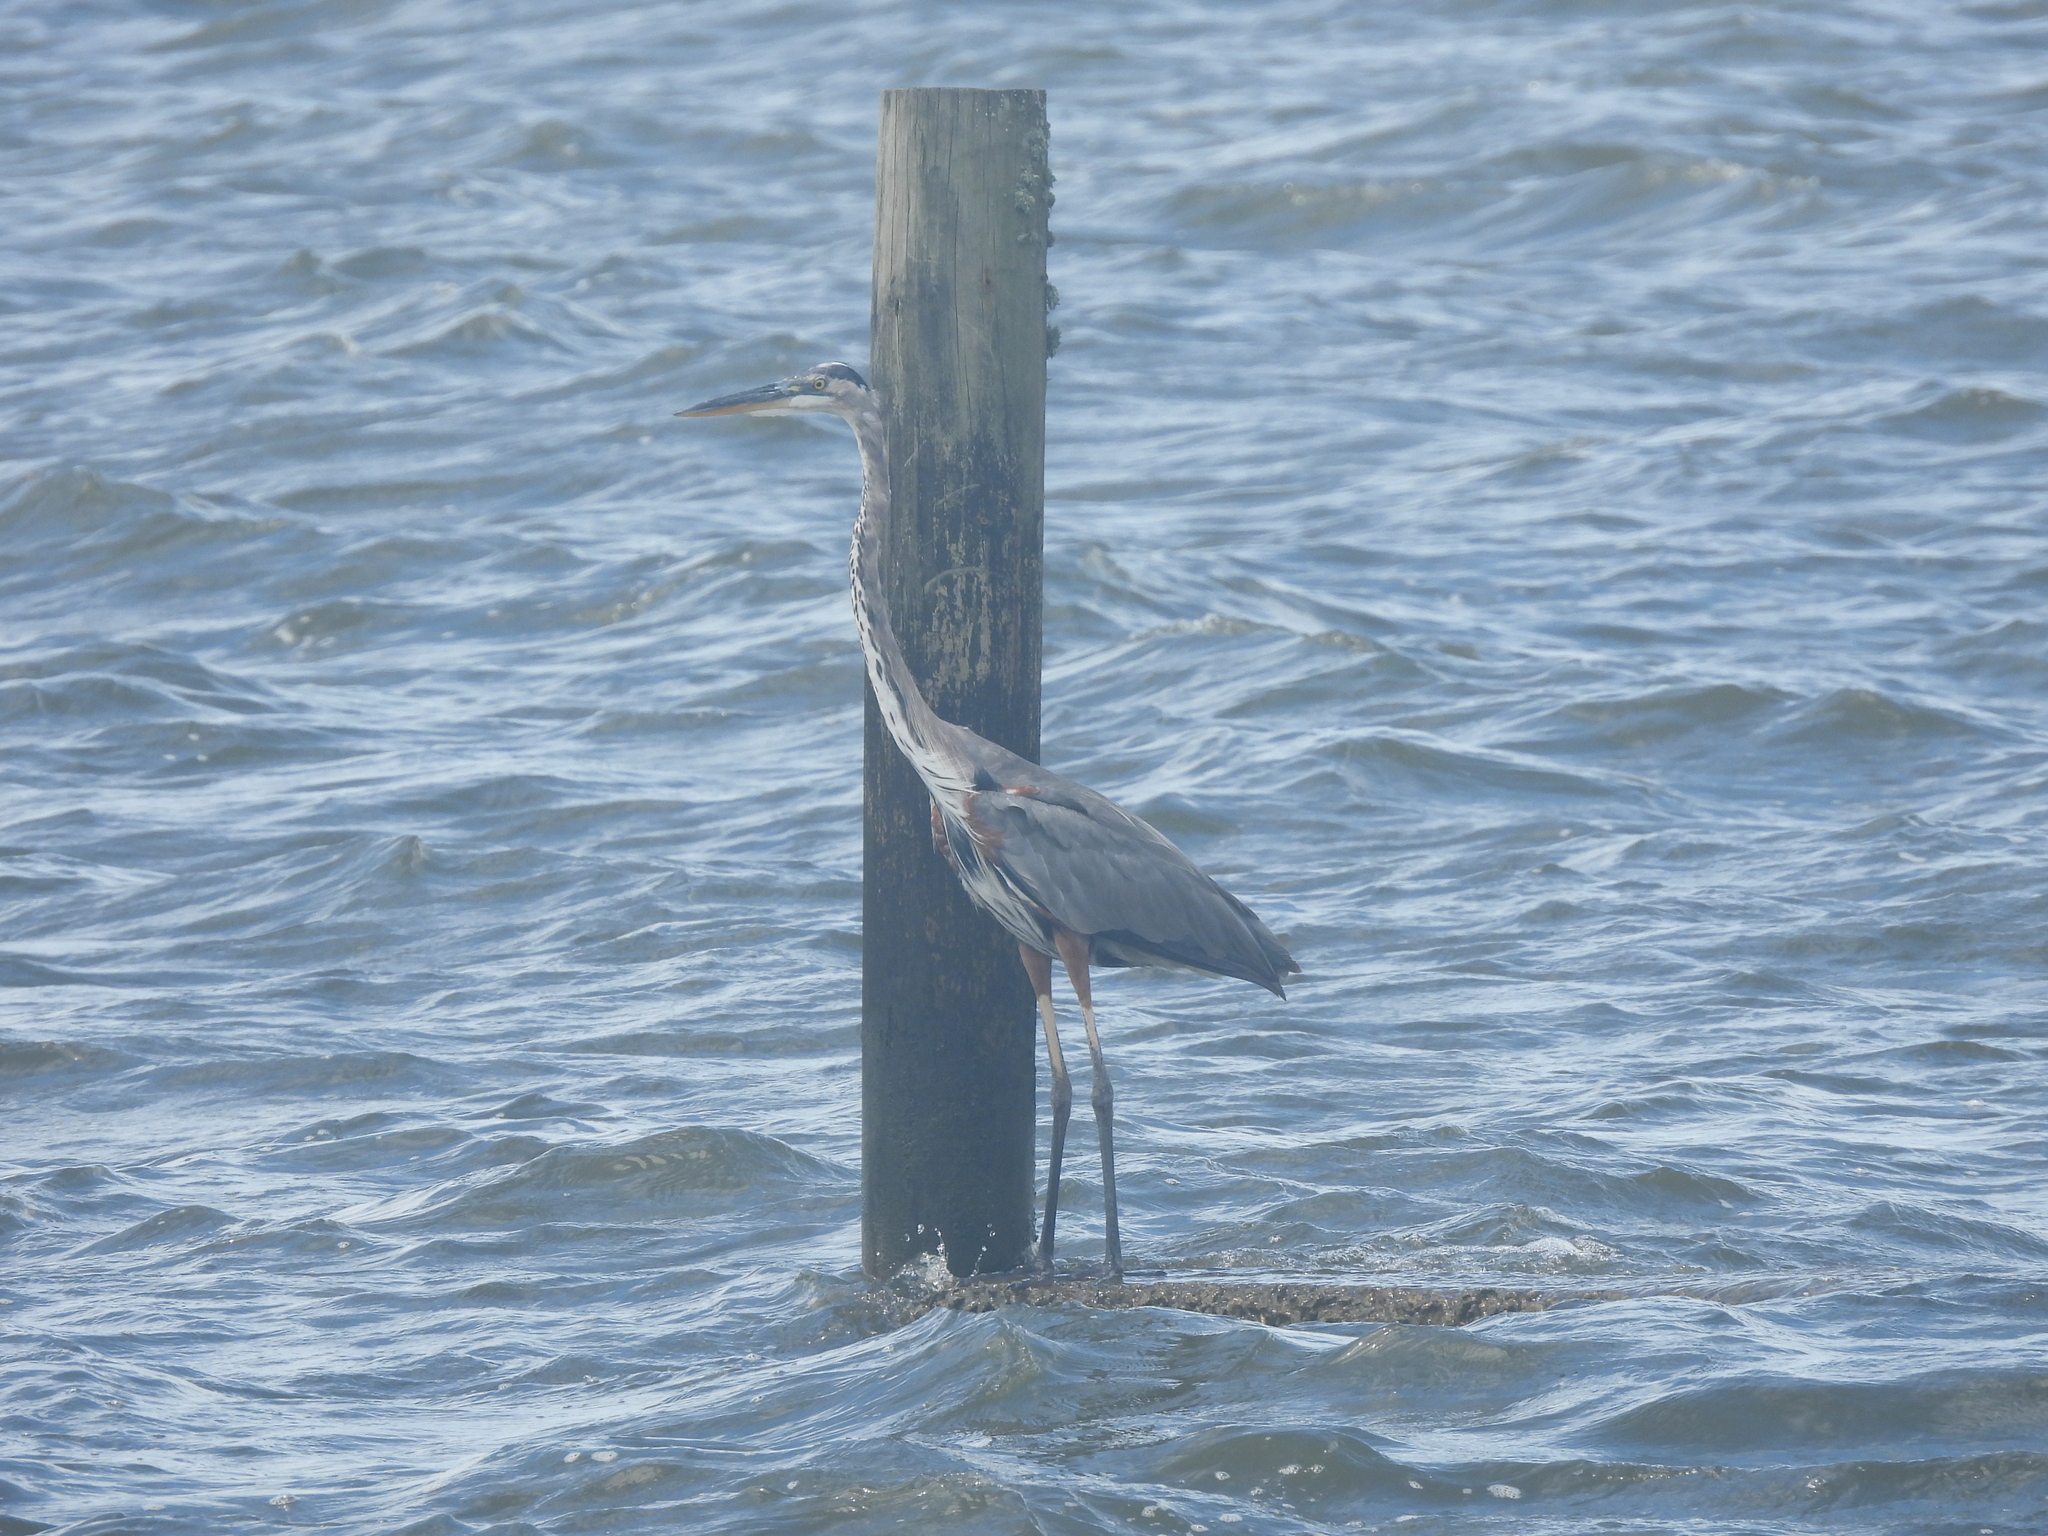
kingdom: Animalia
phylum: Chordata
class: Aves
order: Pelecaniformes
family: Ardeidae
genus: Ardea
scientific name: Ardea herodias
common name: Great blue heron
